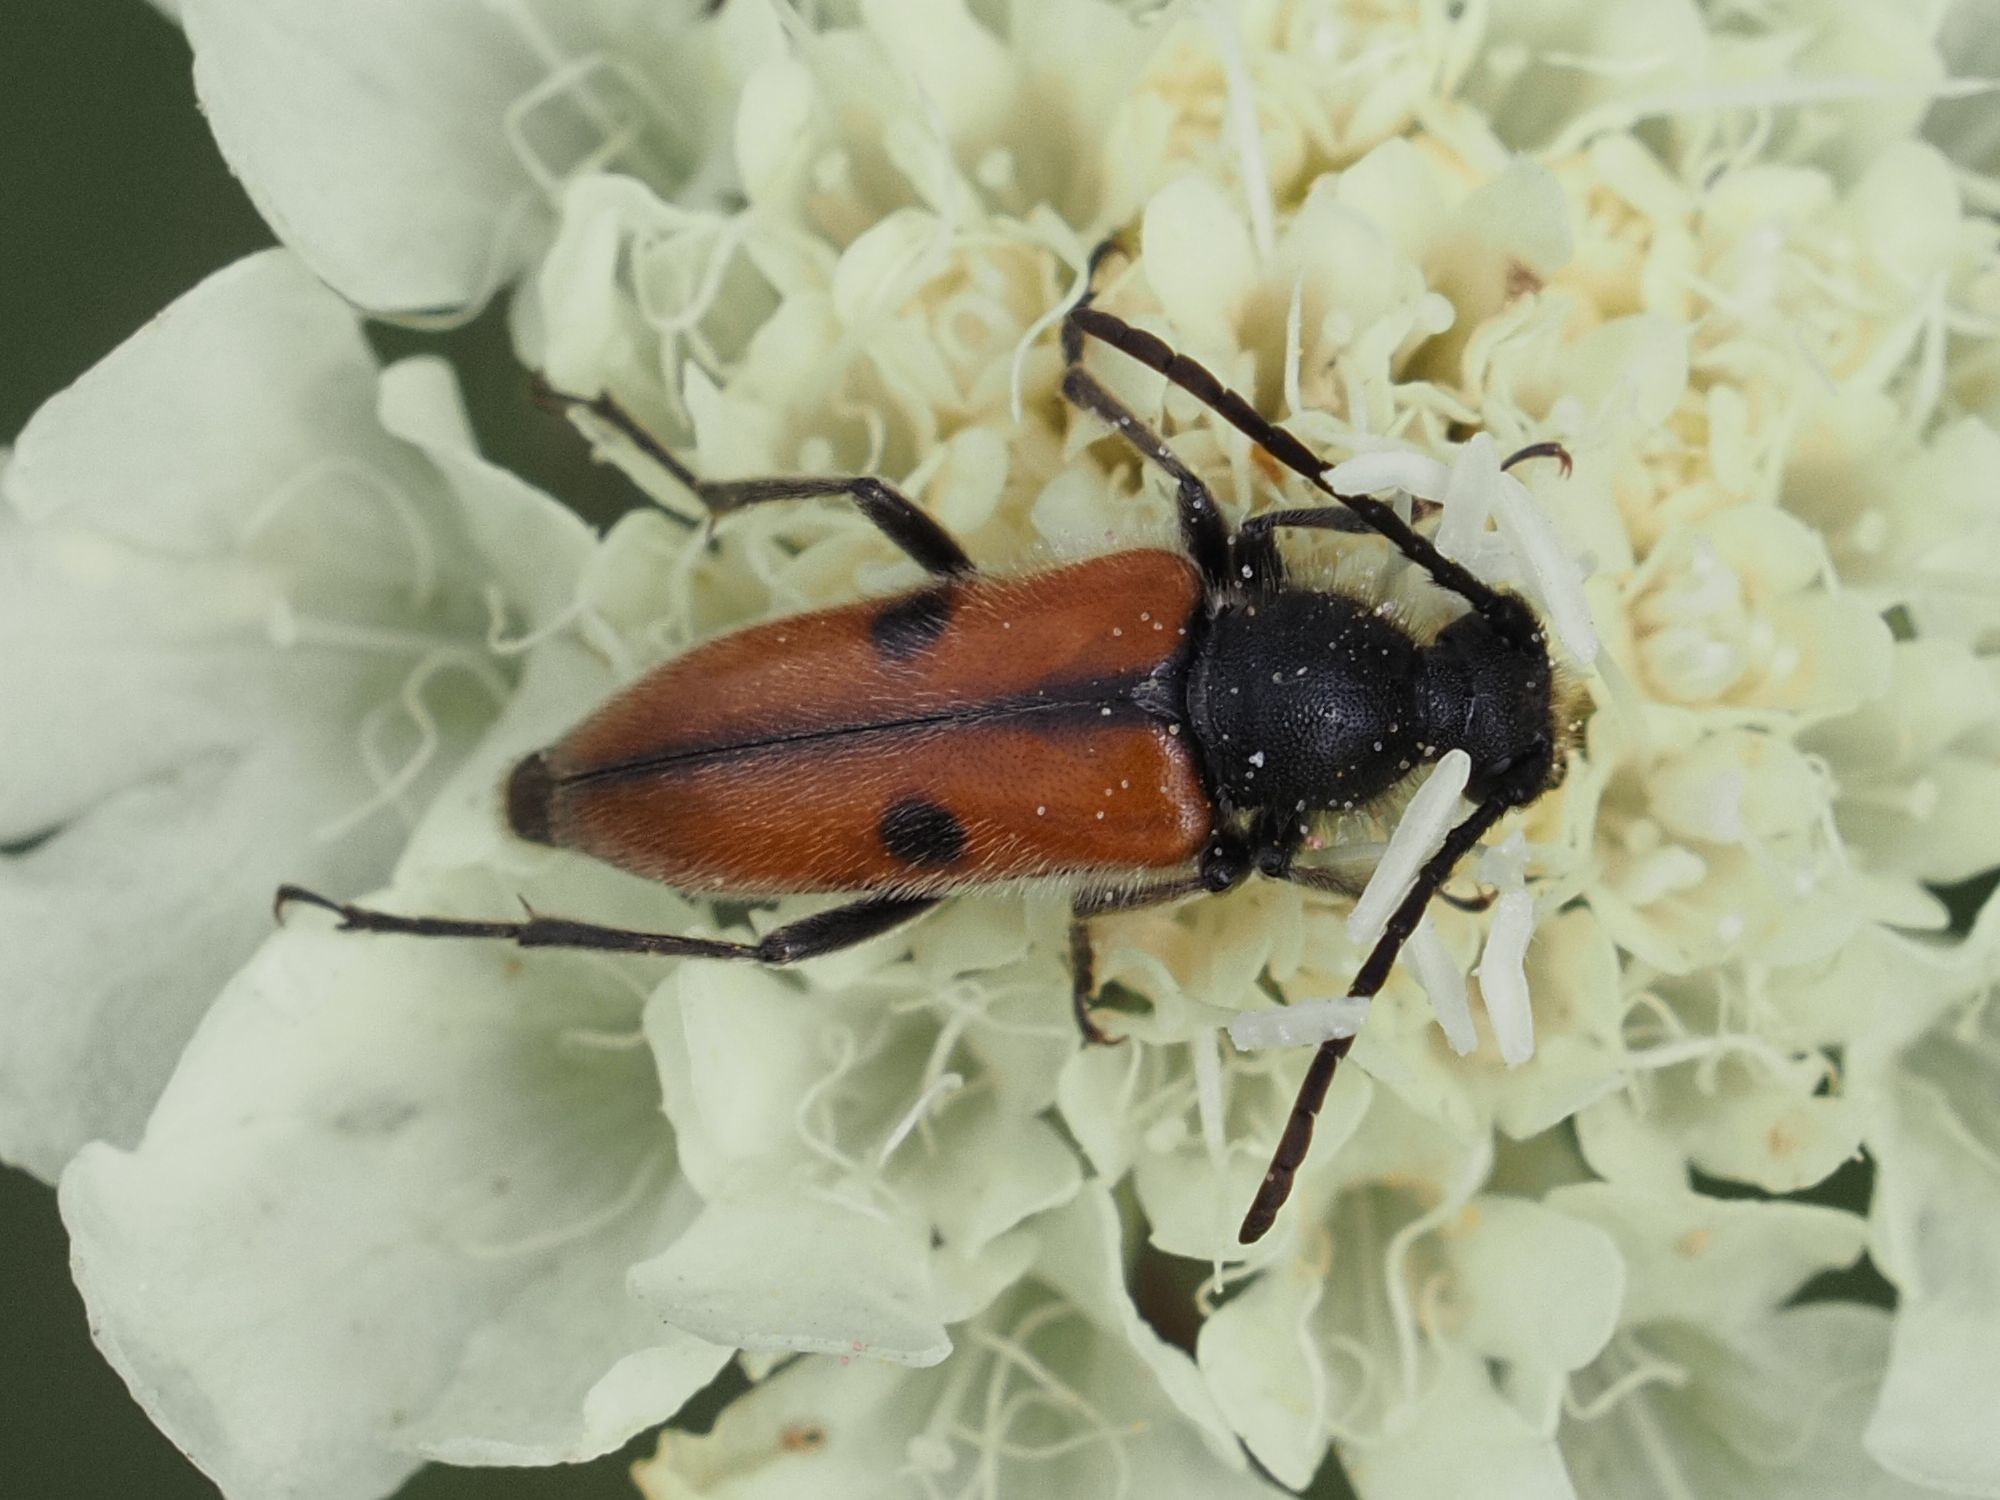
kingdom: Animalia
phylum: Arthropoda
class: Insecta
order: Coleoptera
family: Cerambycidae
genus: Vadonia
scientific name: Vadonia unipunctata
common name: Long-horned beetle
